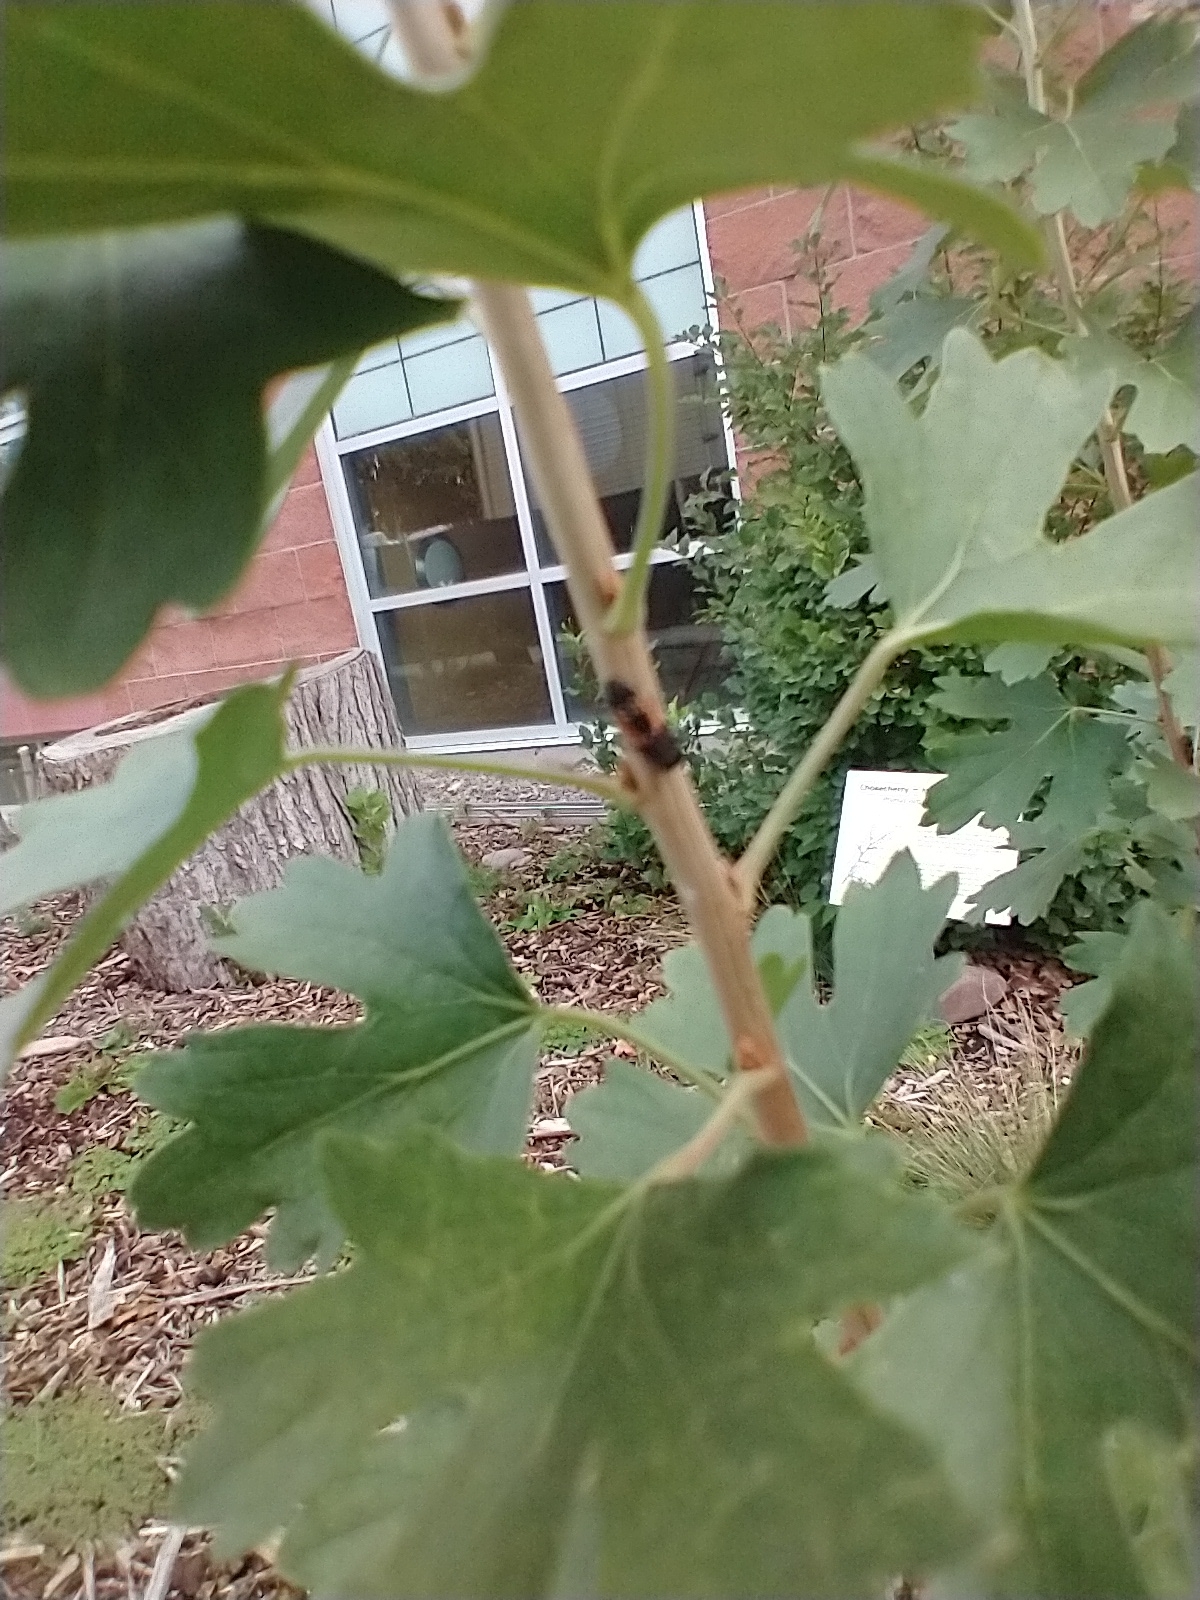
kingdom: Animalia
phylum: Arthropoda
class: Insecta
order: Coleoptera
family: Coccinellidae
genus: Harmonia
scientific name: Harmonia axyridis
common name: Harlequin ladybird
